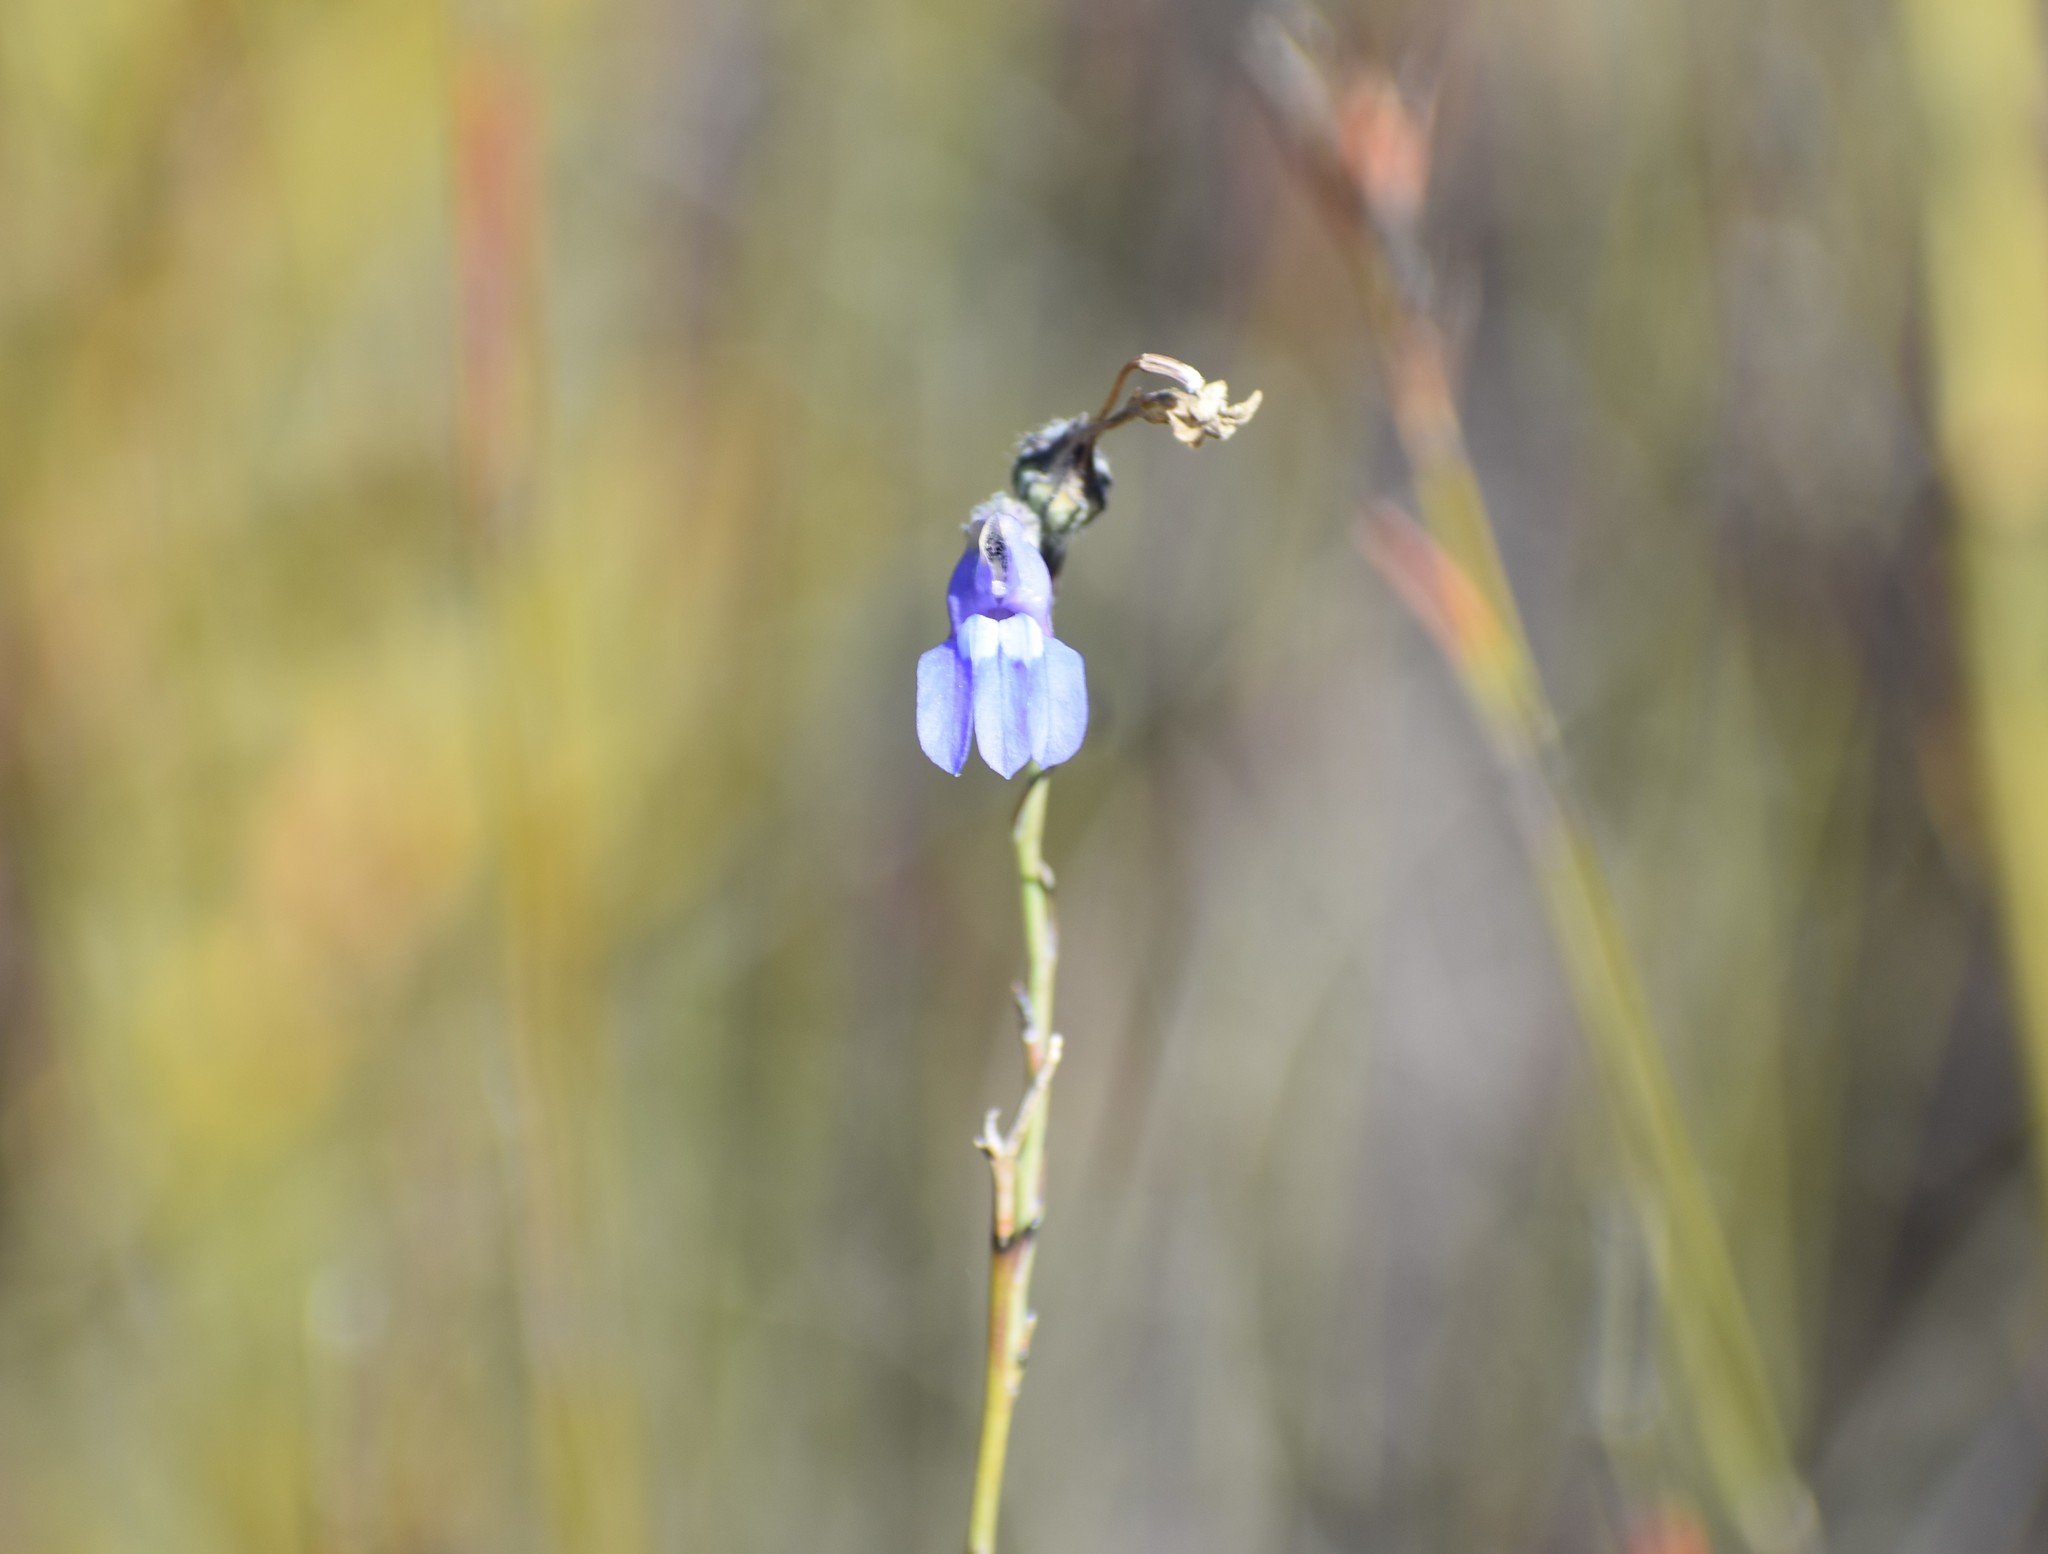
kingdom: Plantae
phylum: Tracheophyta
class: Magnoliopsida
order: Asterales
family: Campanulaceae
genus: Lobelia
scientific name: Lobelia linearis
